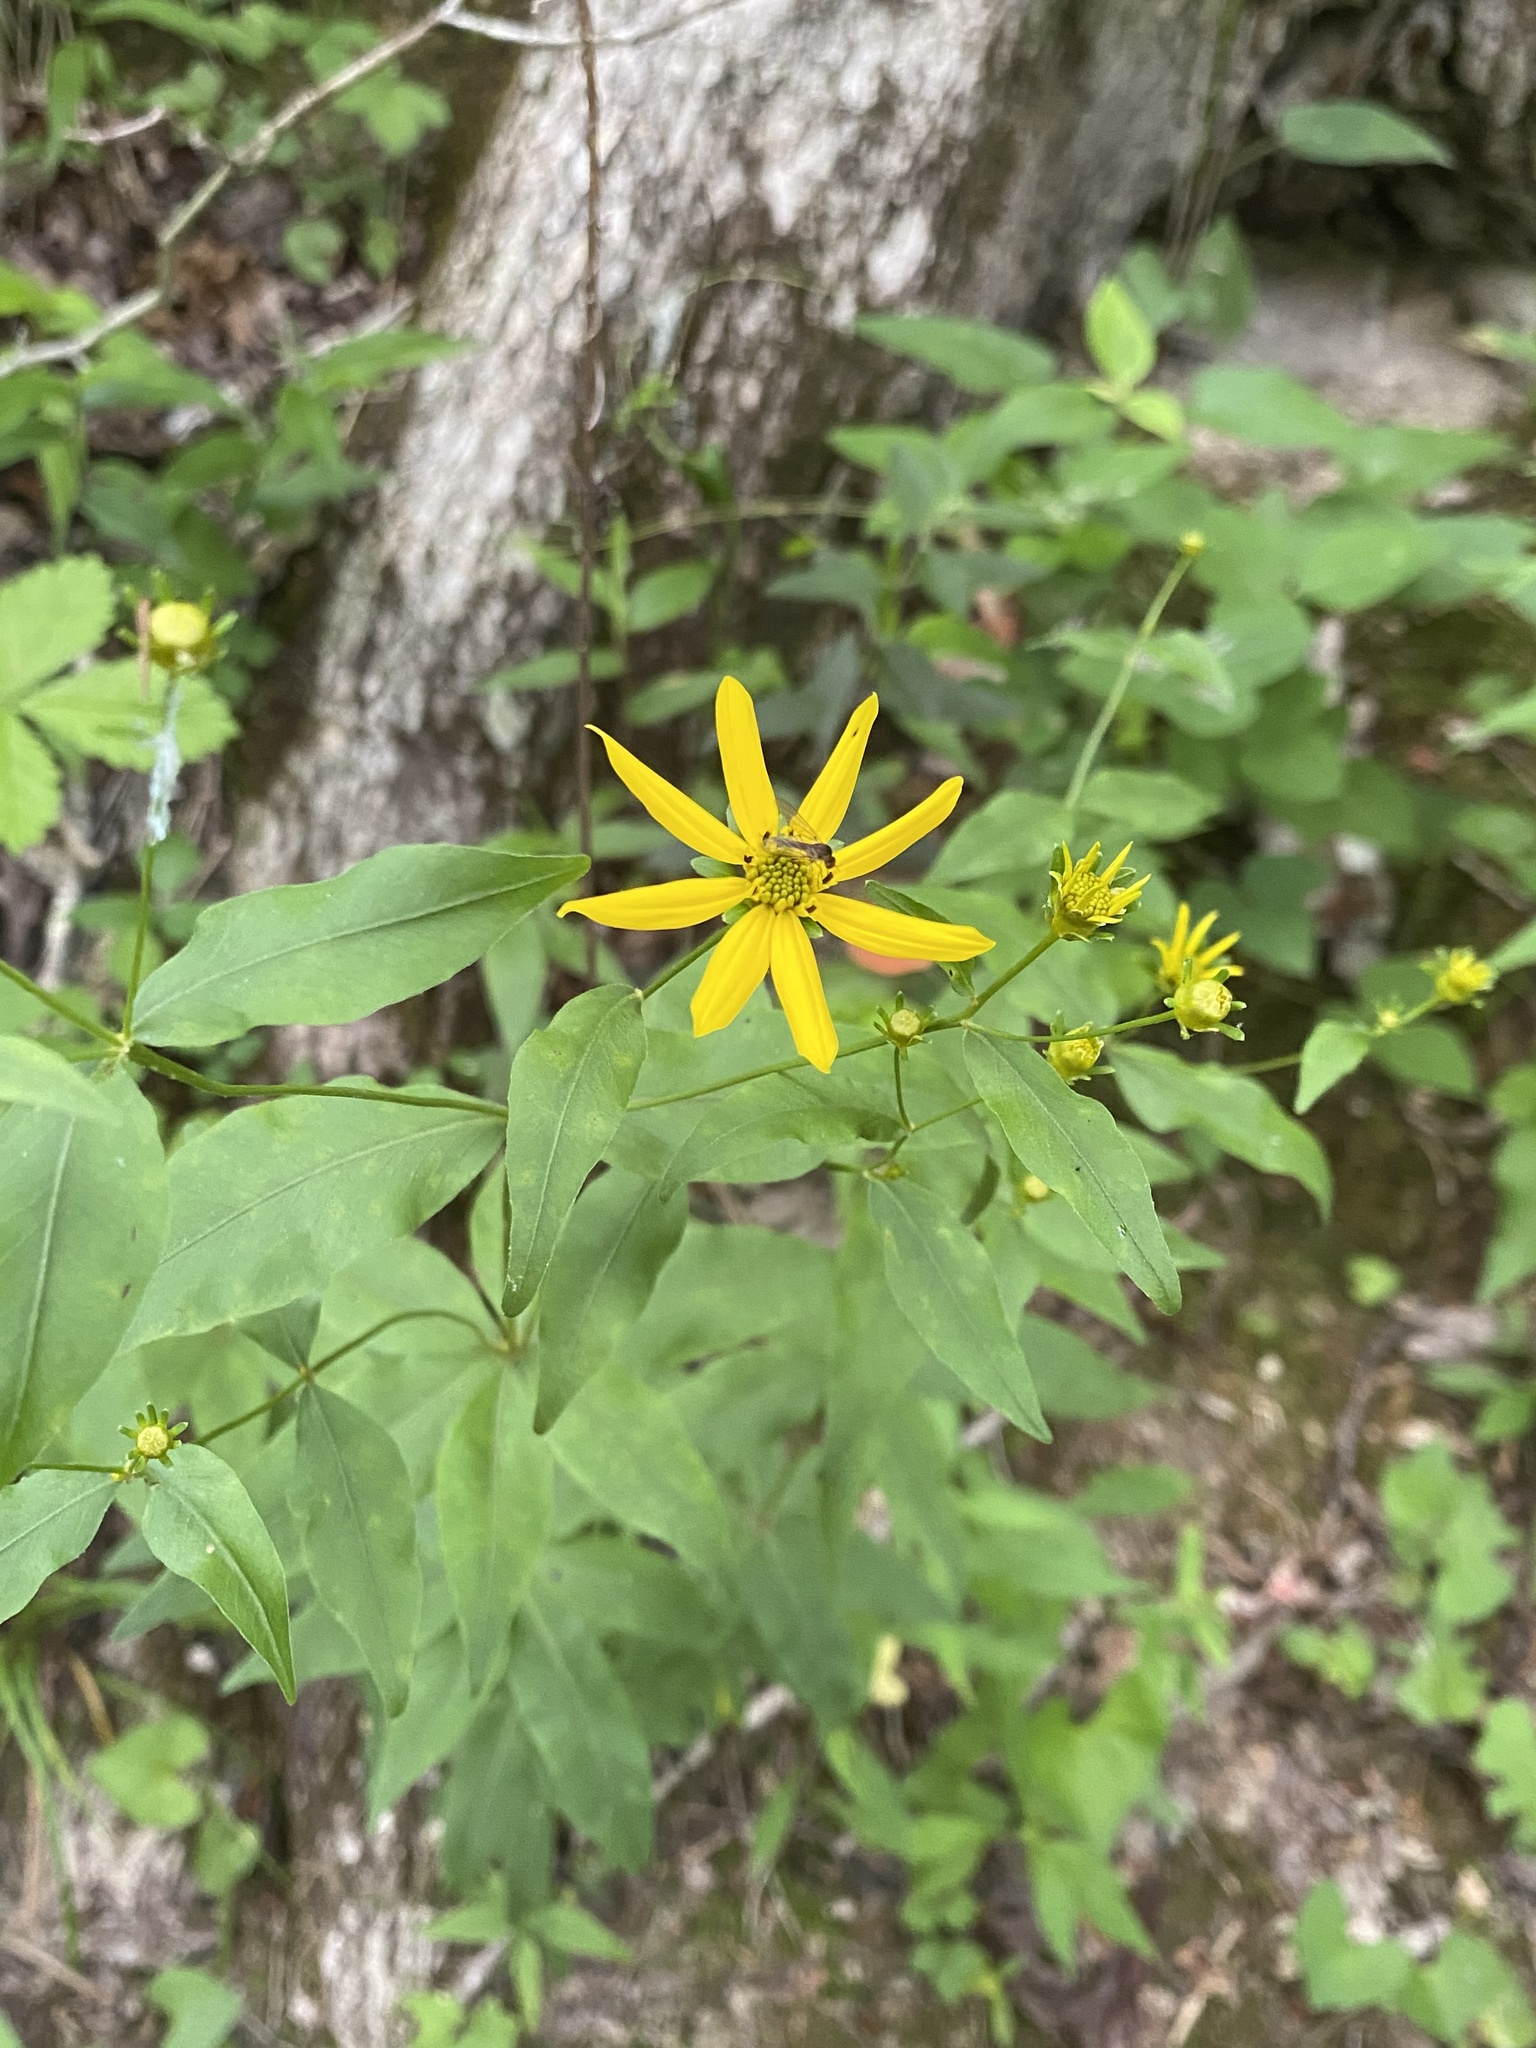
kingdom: Plantae
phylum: Tracheophyta
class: Magnoliopsida
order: Asterales
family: Asteraceae
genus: Coreopsis
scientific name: Coreopsis major
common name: Forest tickseed
